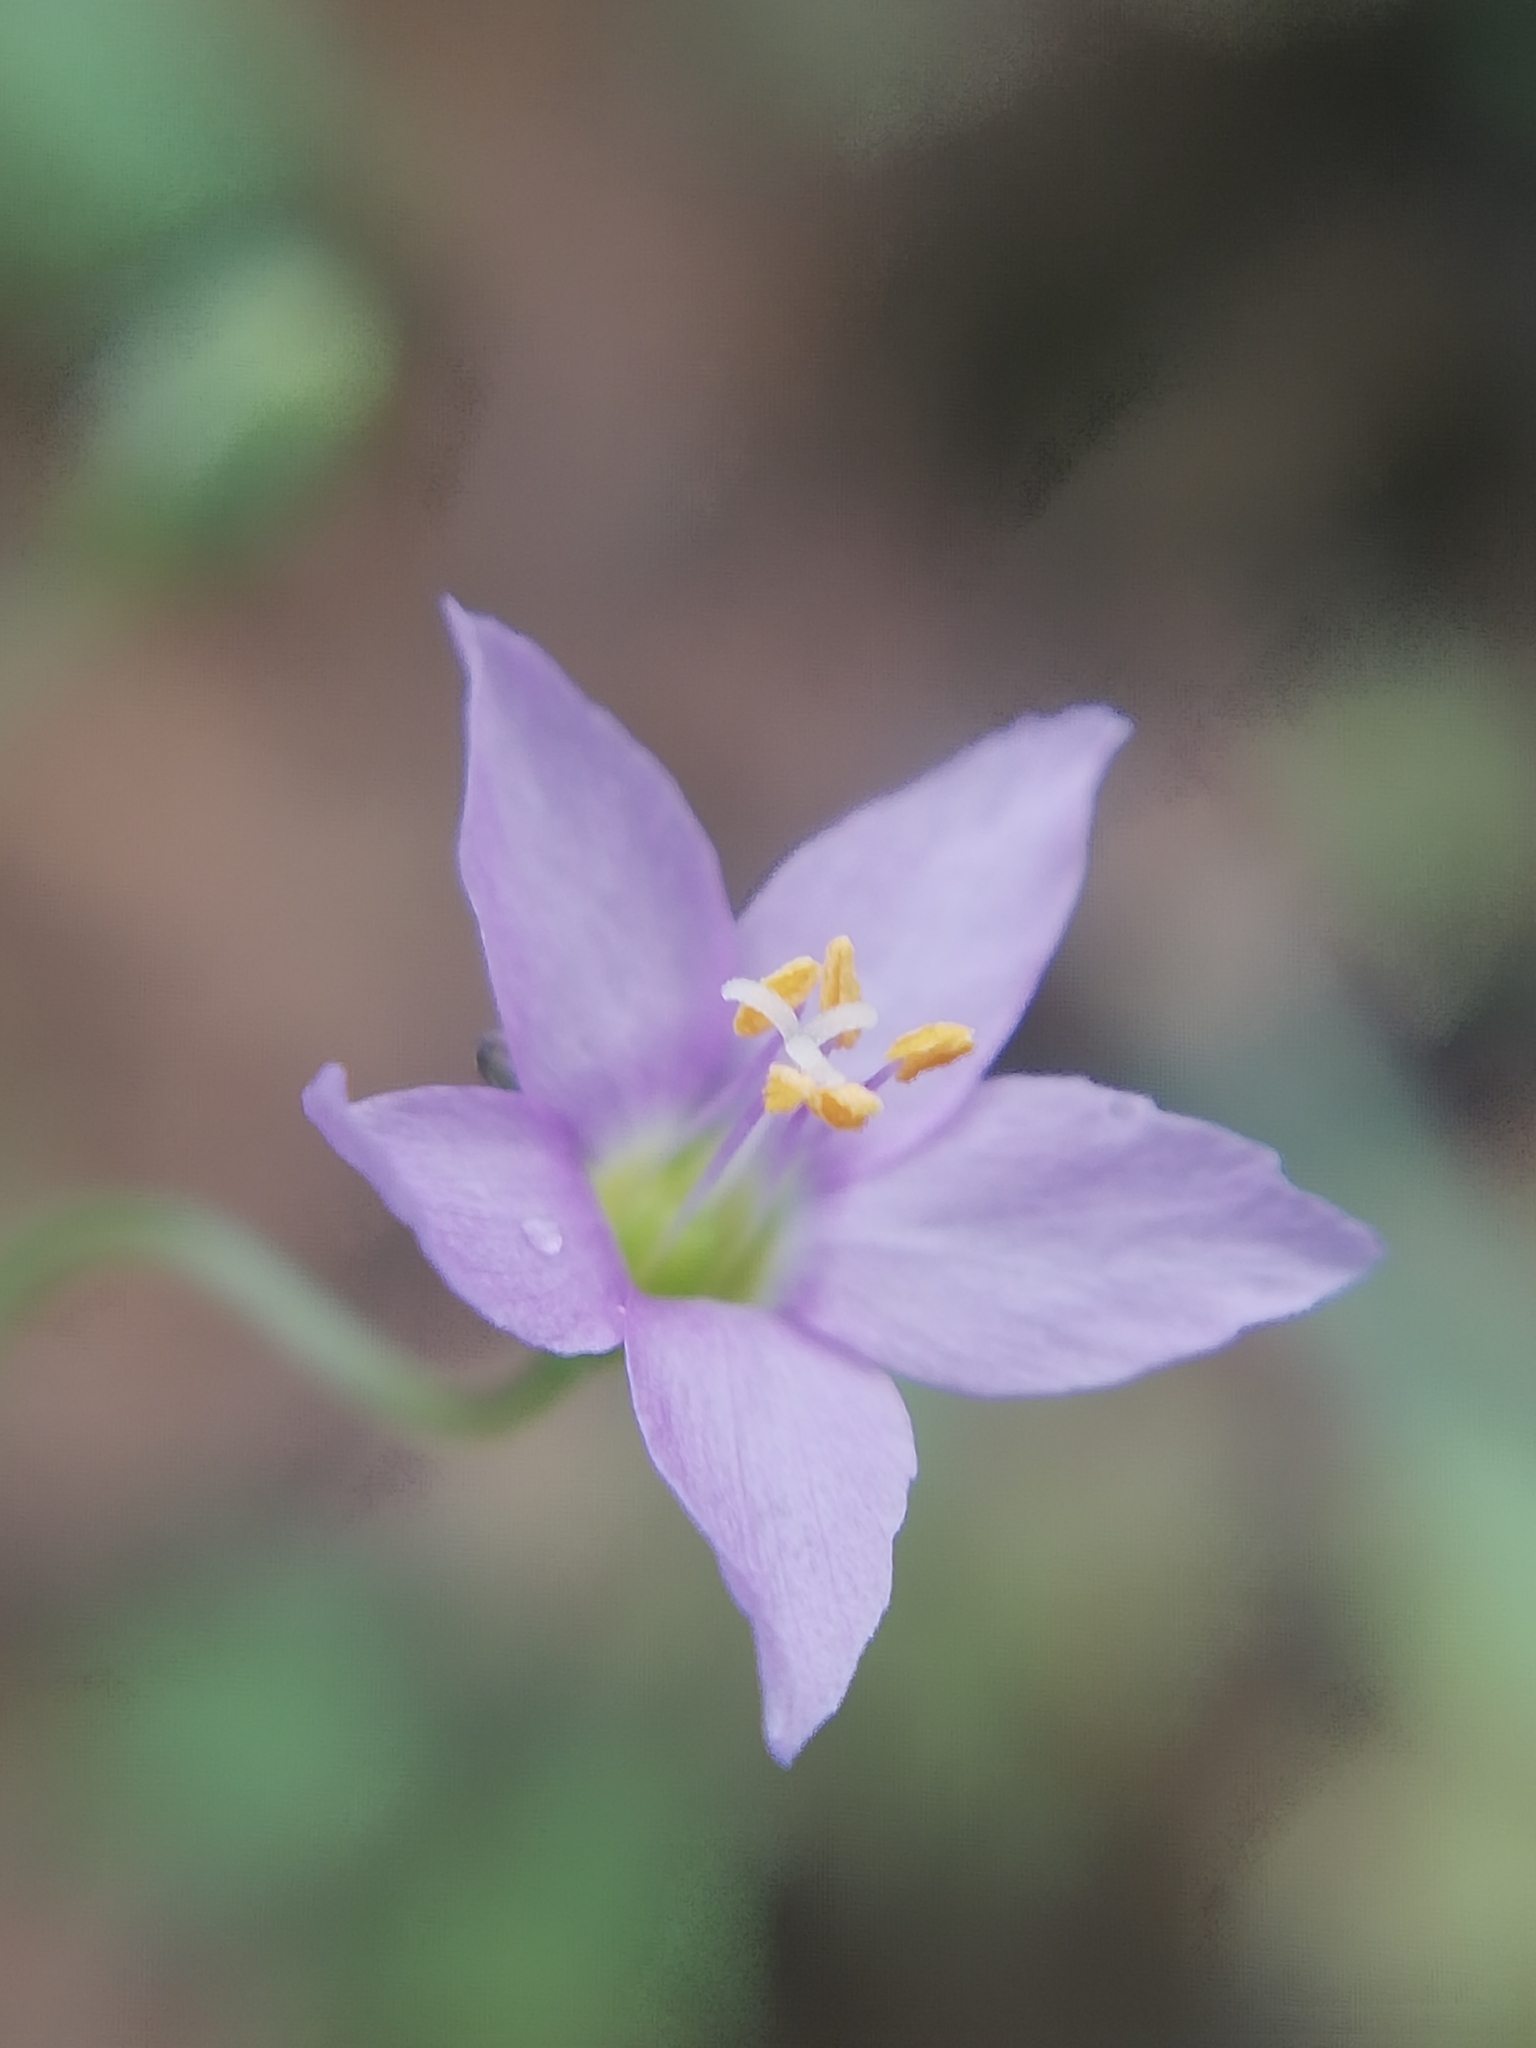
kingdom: Plantae
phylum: Tracheophyta
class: Magnoliopsida
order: Ericales
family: Polemoniaceae
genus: Giliastrum
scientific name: Giliastrum incisum
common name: Splitleaf gilia
